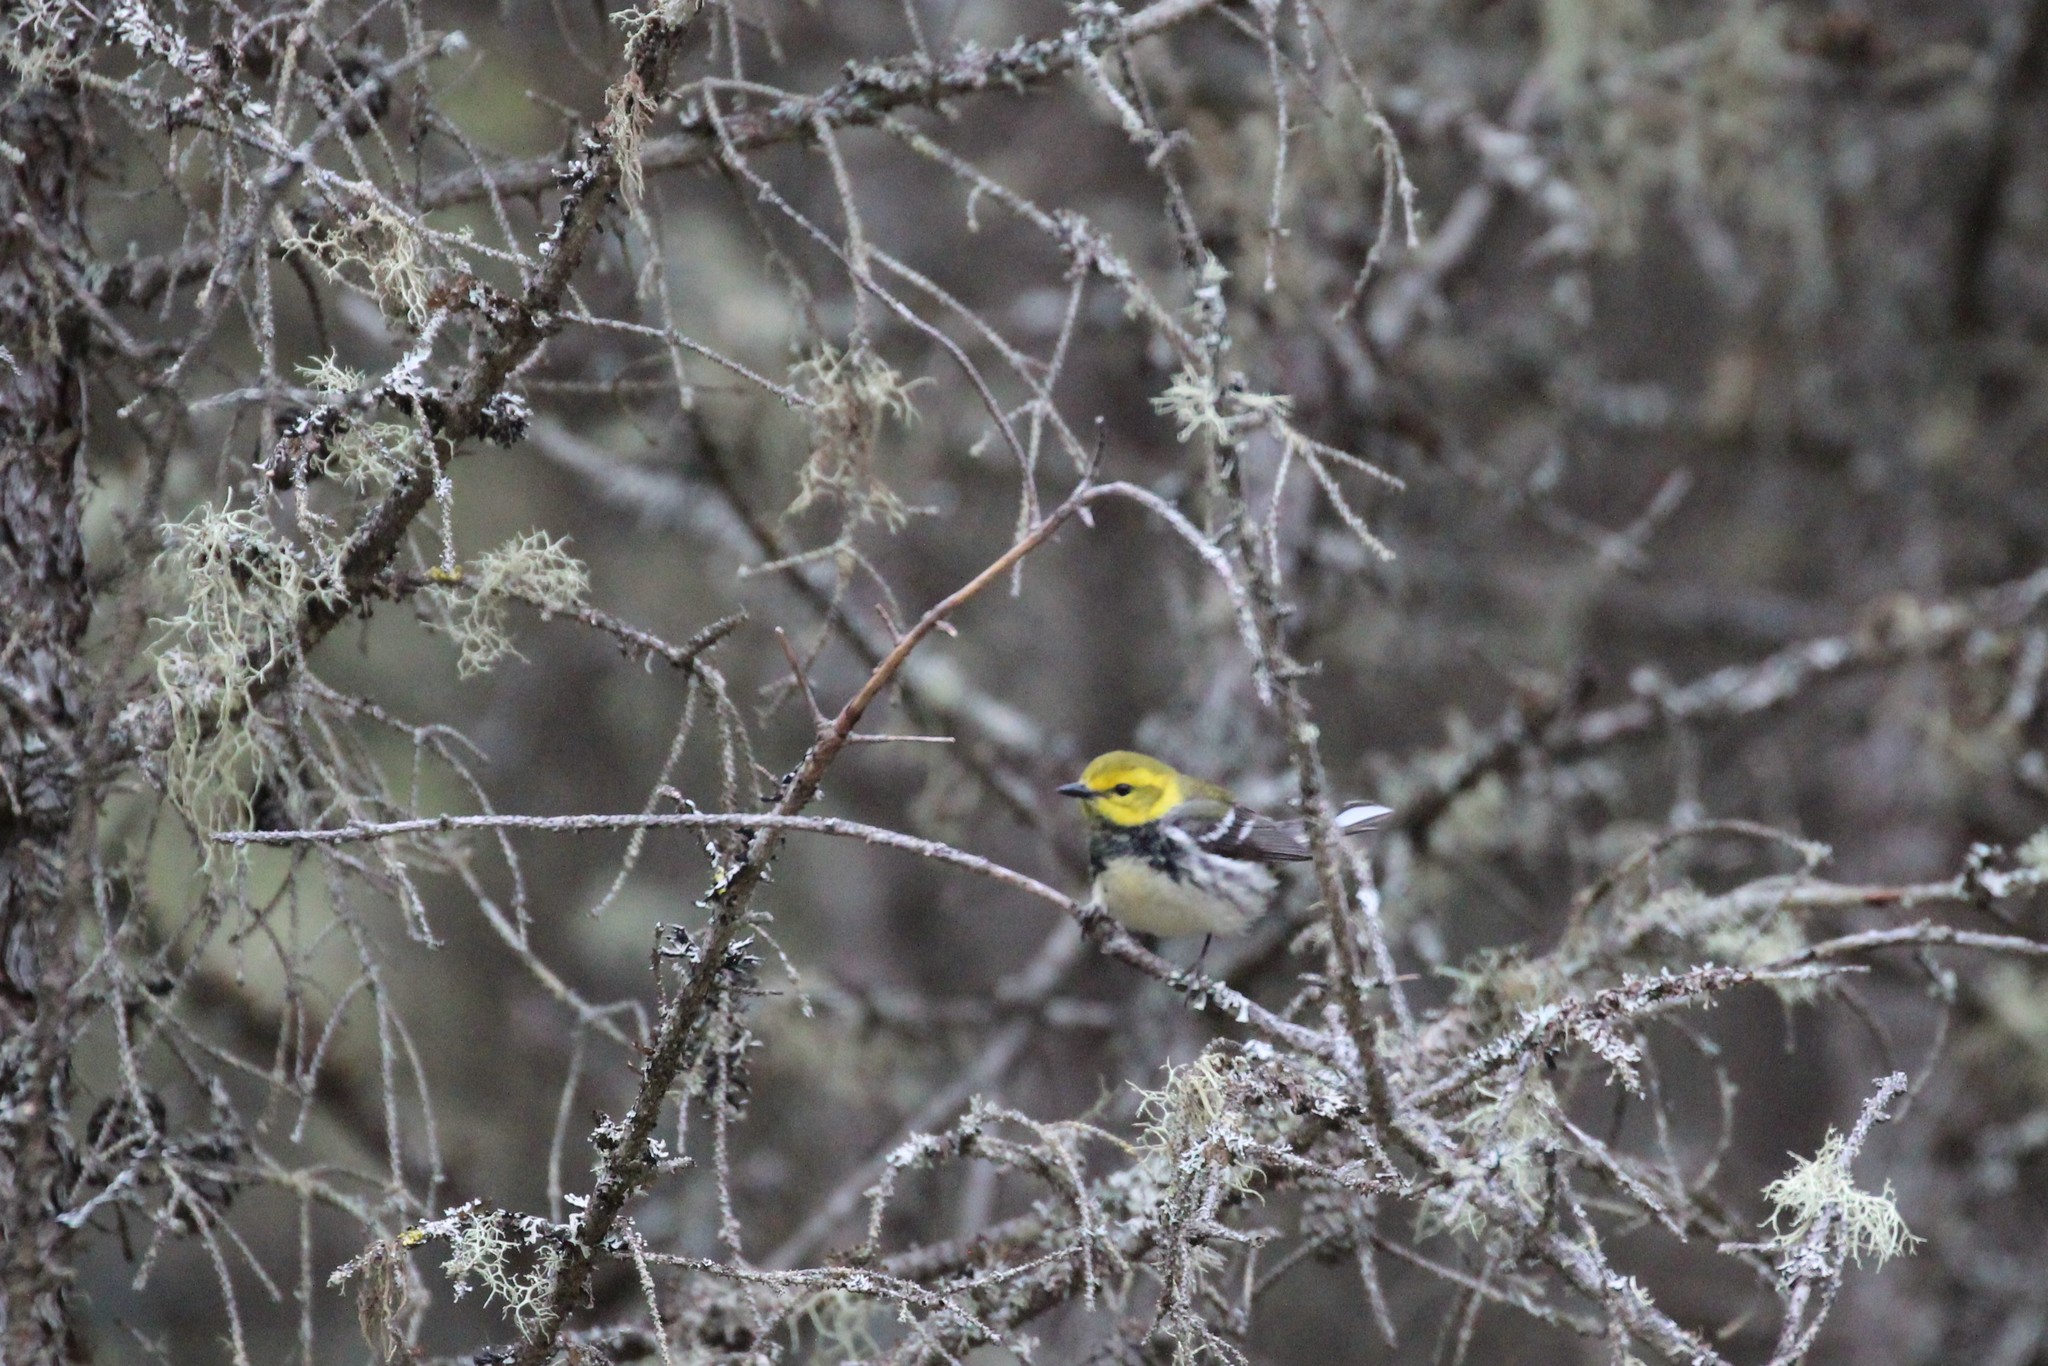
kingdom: Animalia
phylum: Chordata
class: Aves
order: Passeriformes
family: Parulidae
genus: Setophaga
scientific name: Setophaga virens
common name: Black-throated green warbler
